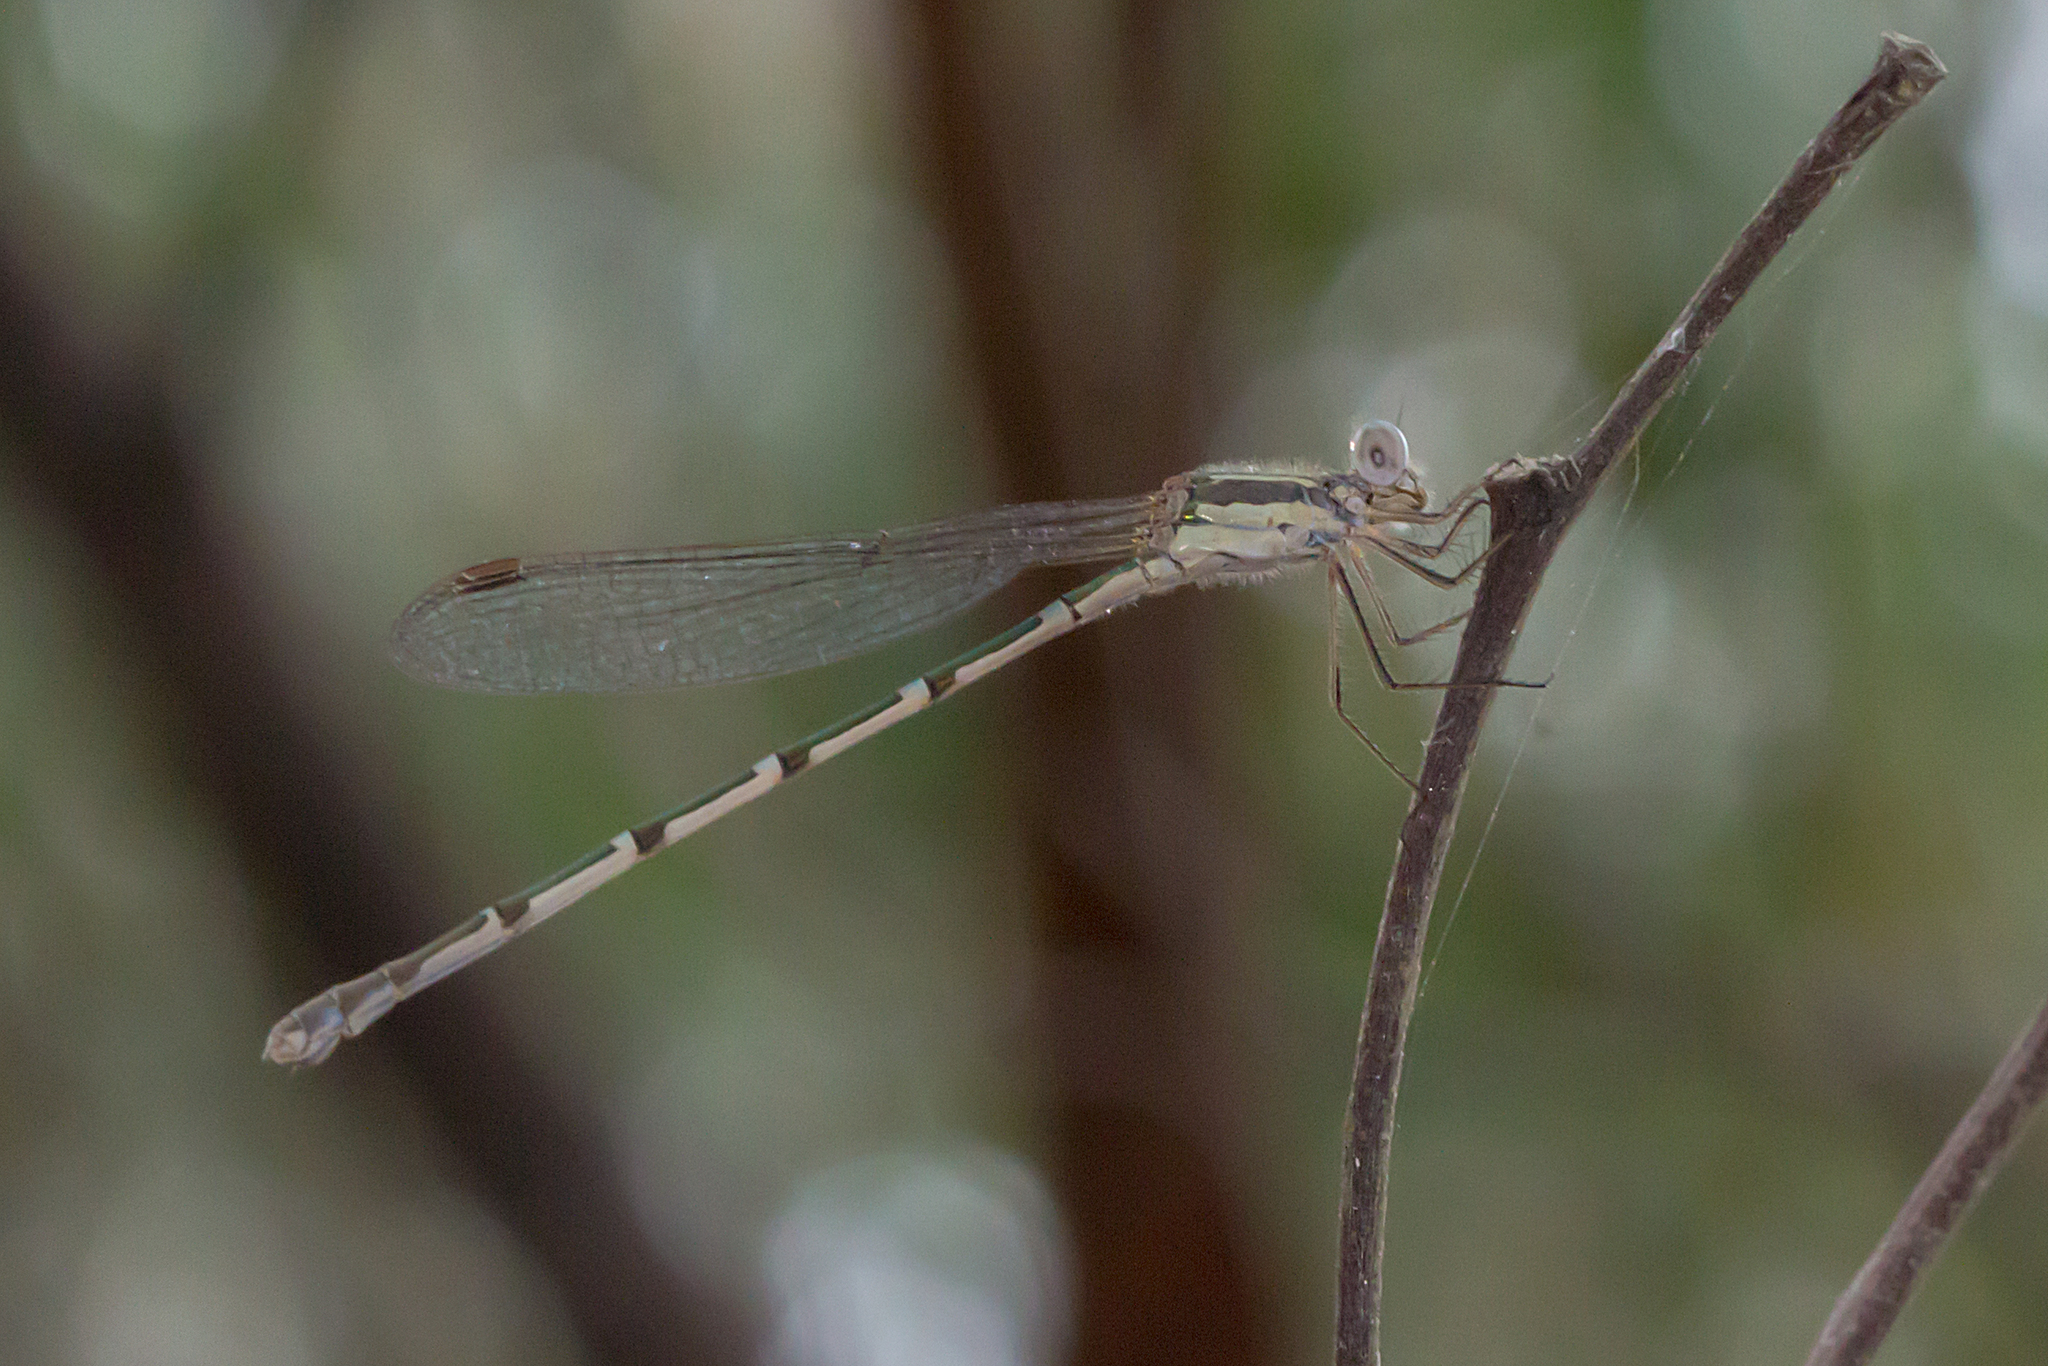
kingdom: Animalia
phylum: Arthropoda
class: Insecta
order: Odonata
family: Lestidae
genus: Austrolestes
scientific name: Austrolestes leda
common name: Wandering ringtail
